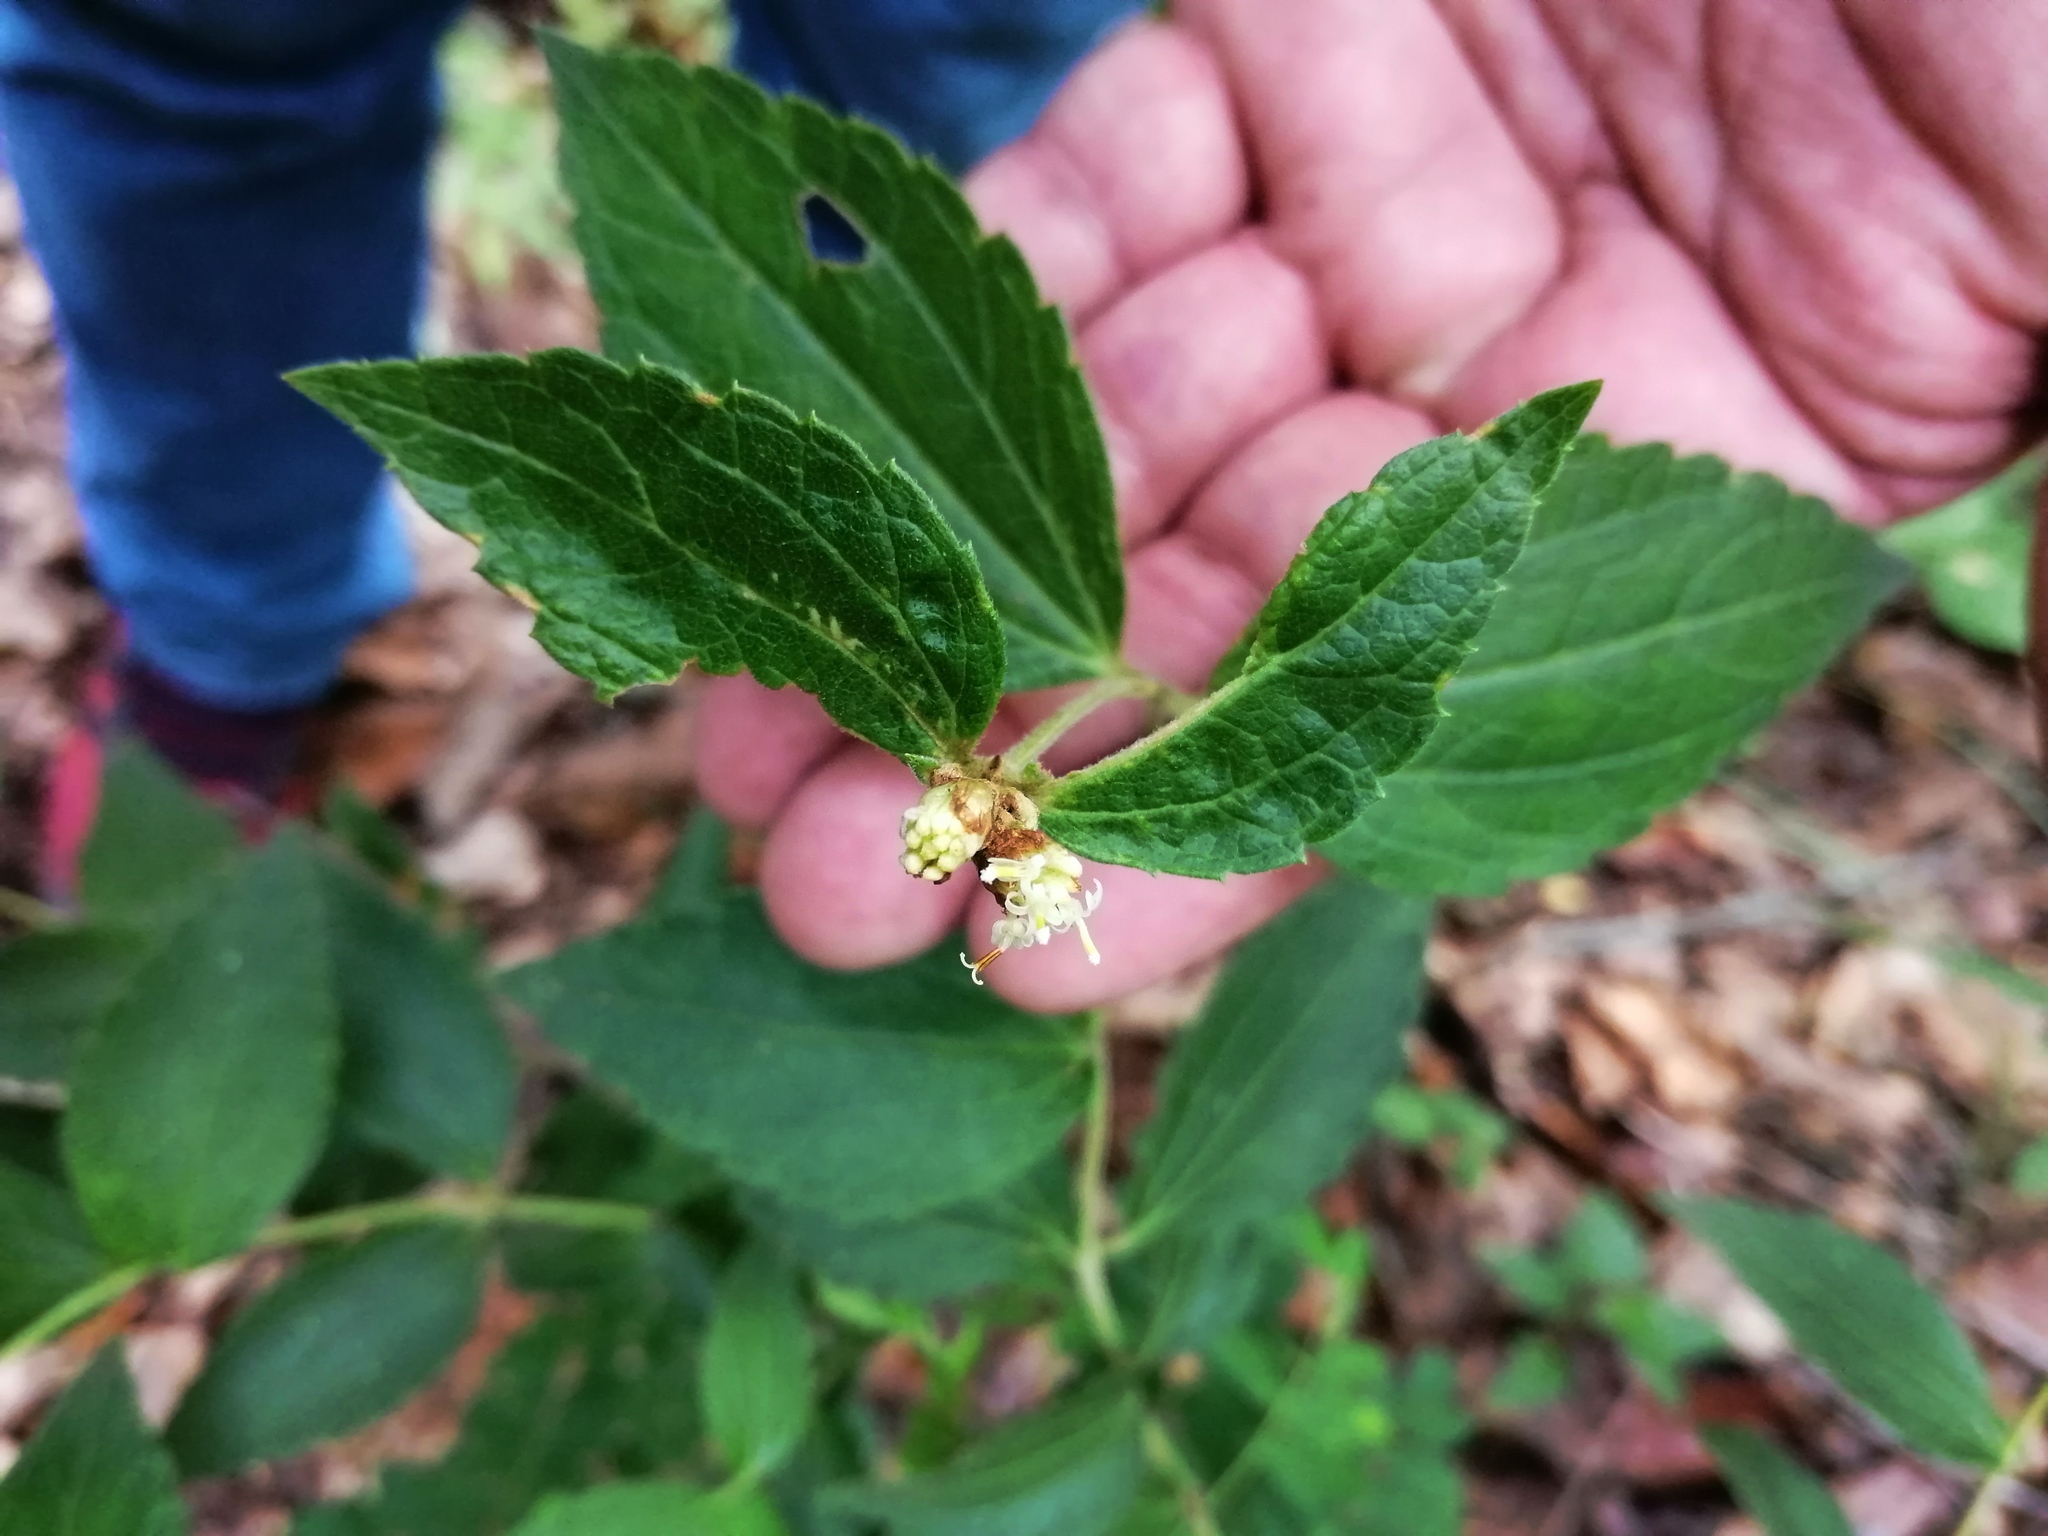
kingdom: Plantae
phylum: Tracheophyta
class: Magnoliopsida
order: Asterales
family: Asteraceae
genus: Calea
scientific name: Calea ternifolia
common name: Mexican calea
